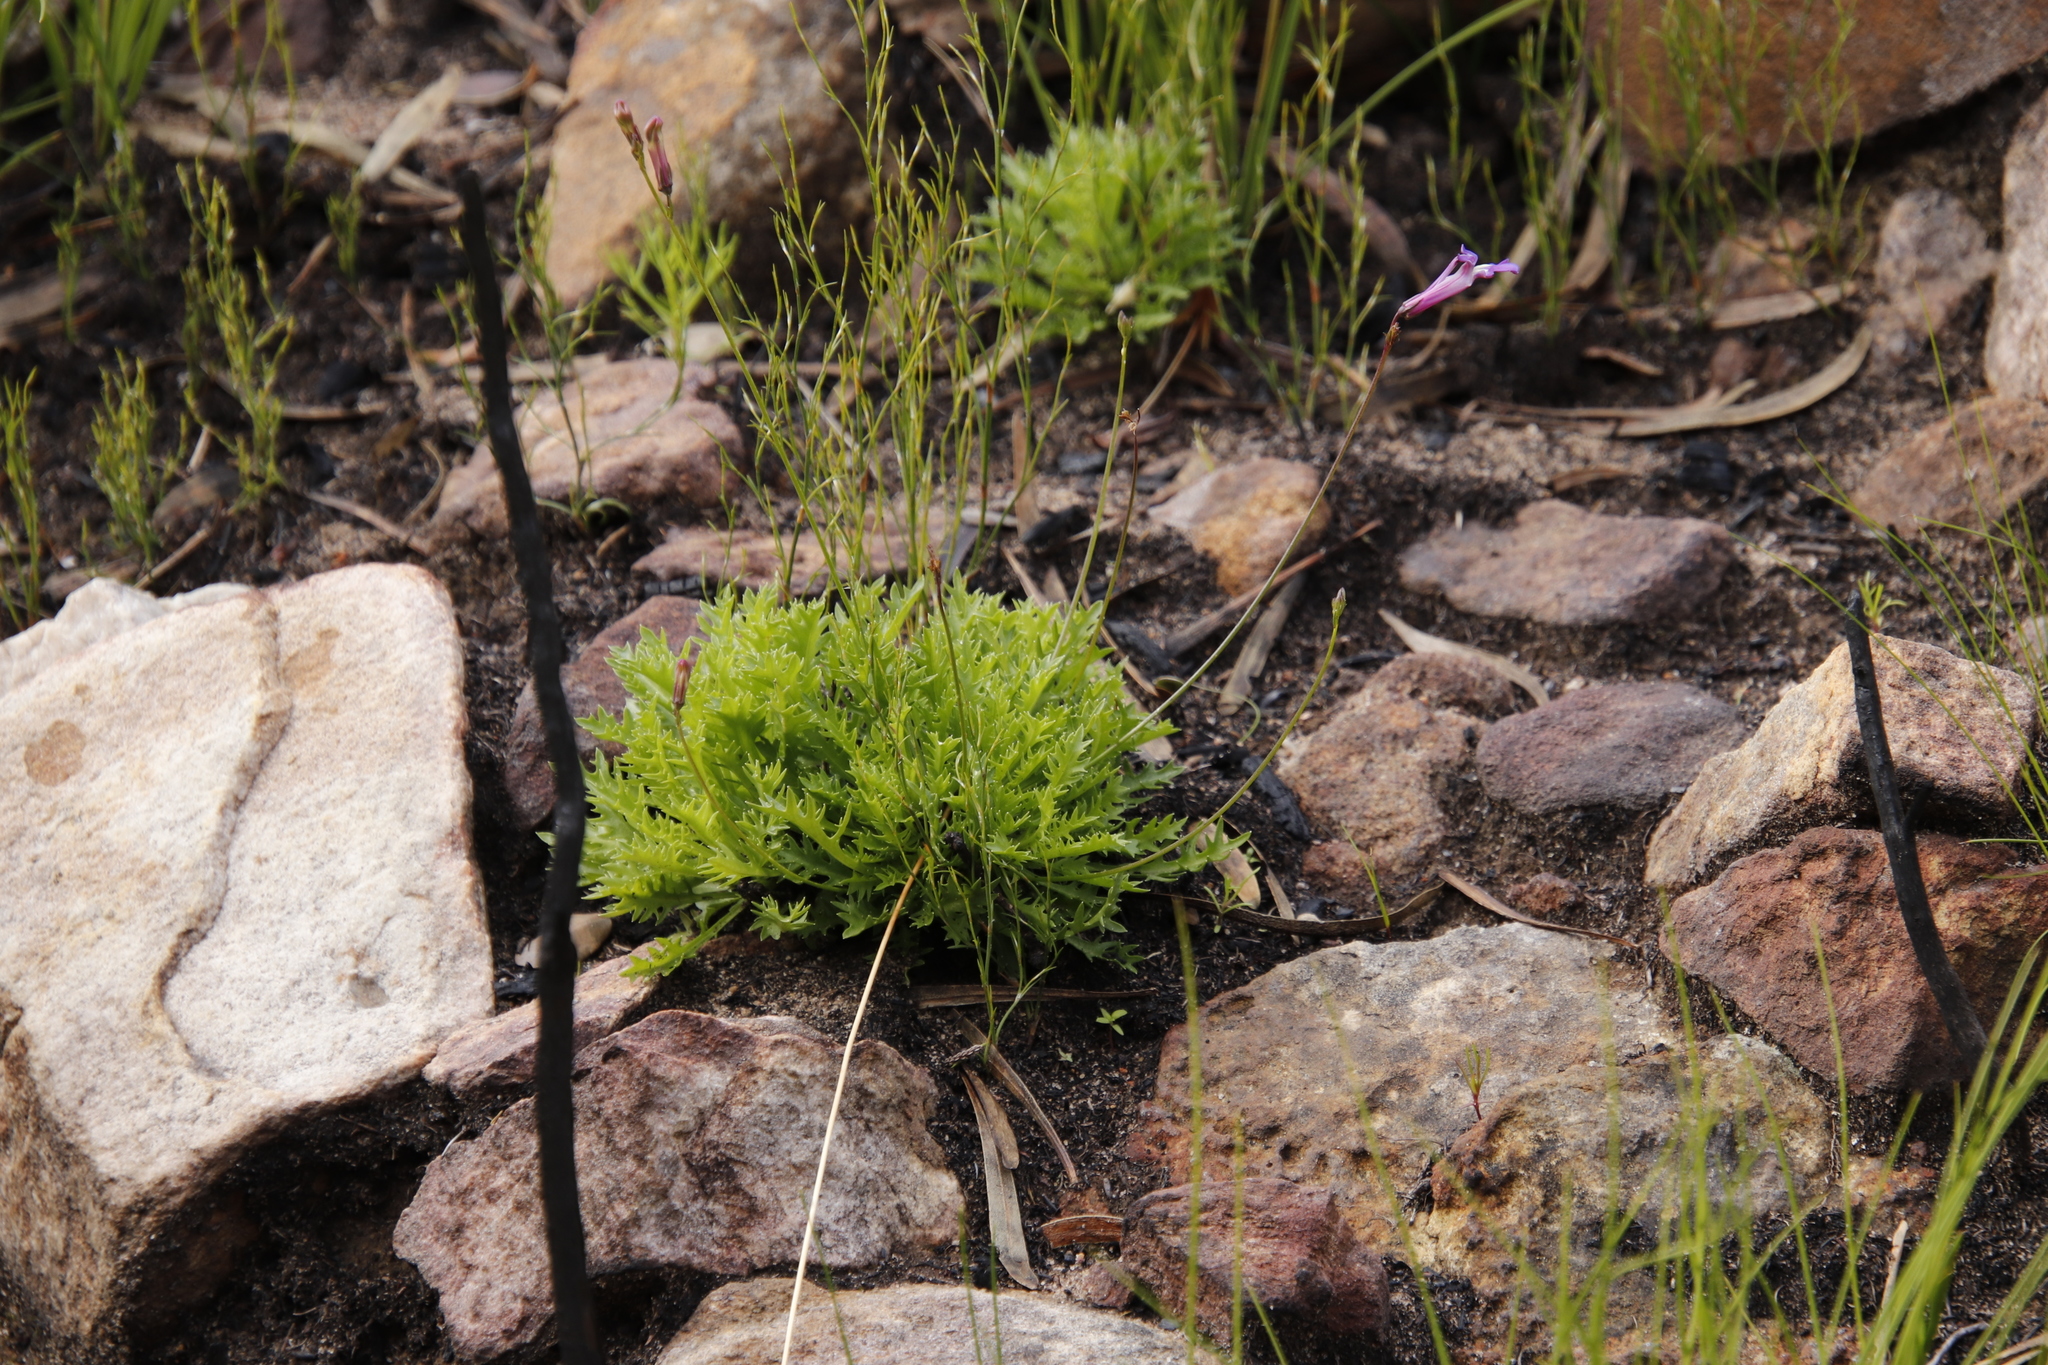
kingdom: Plantae
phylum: Tracheophyta
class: Magnoliopsida
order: Asterales
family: Campanulaceae
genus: Lobelia
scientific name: Lobelia coronopifolia
